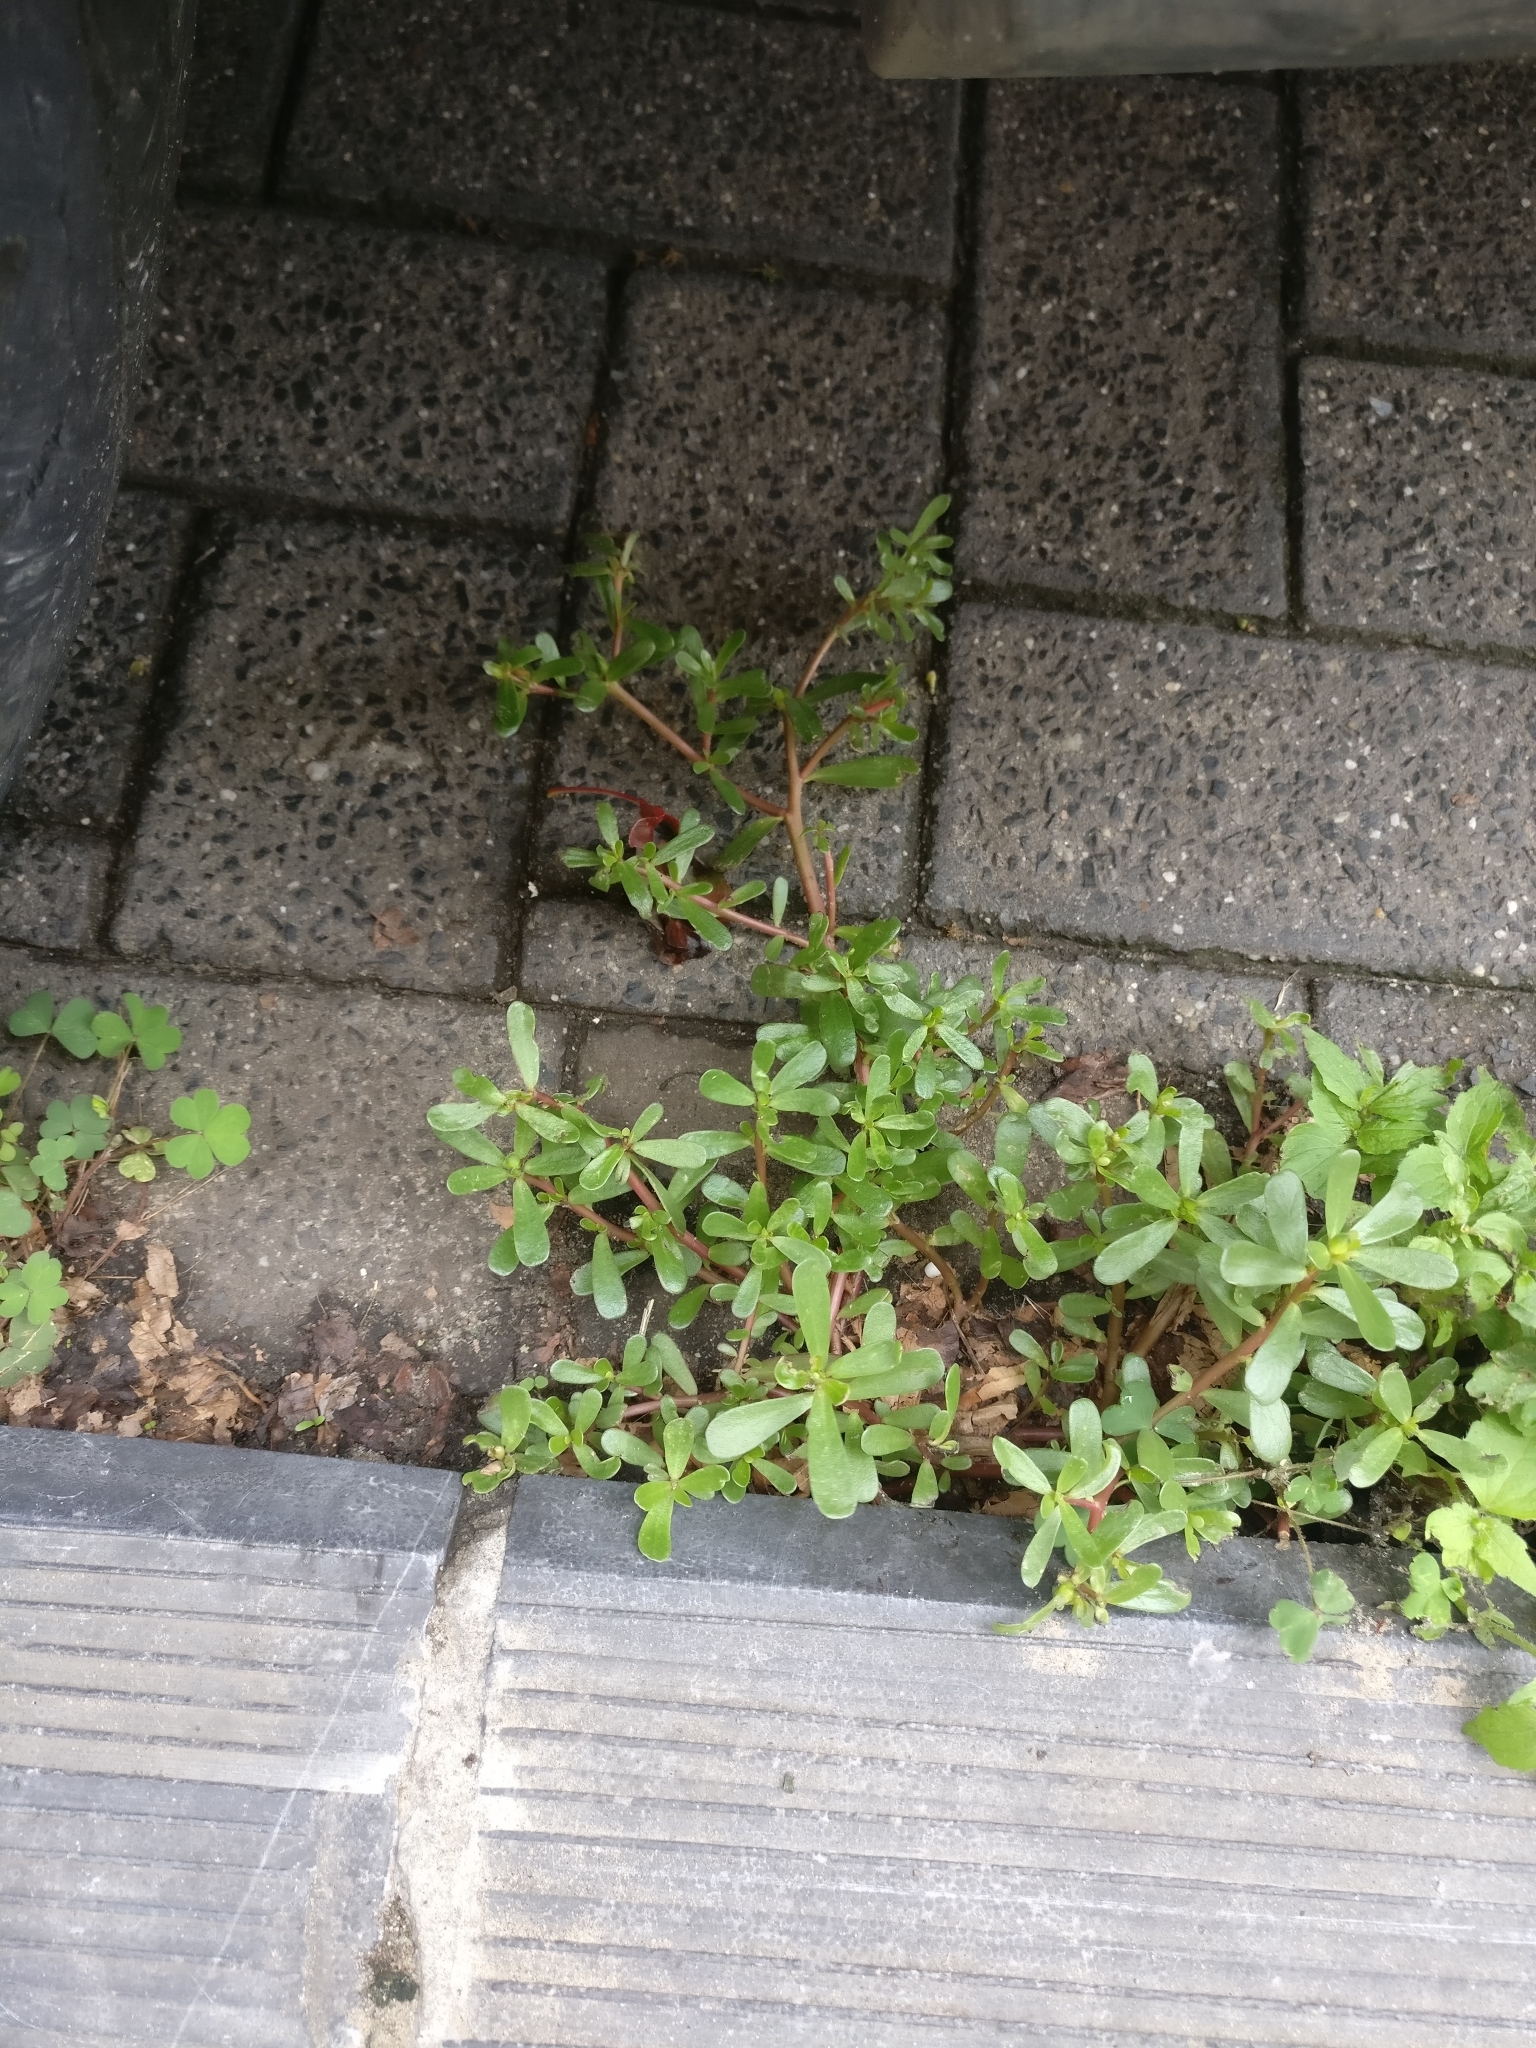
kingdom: Plantae
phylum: Tracheophyta
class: Magnoliopsida
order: Caryophyllales
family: Portulacaceae
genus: Portulaca
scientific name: Portulaca oleracea
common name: Common purslane
